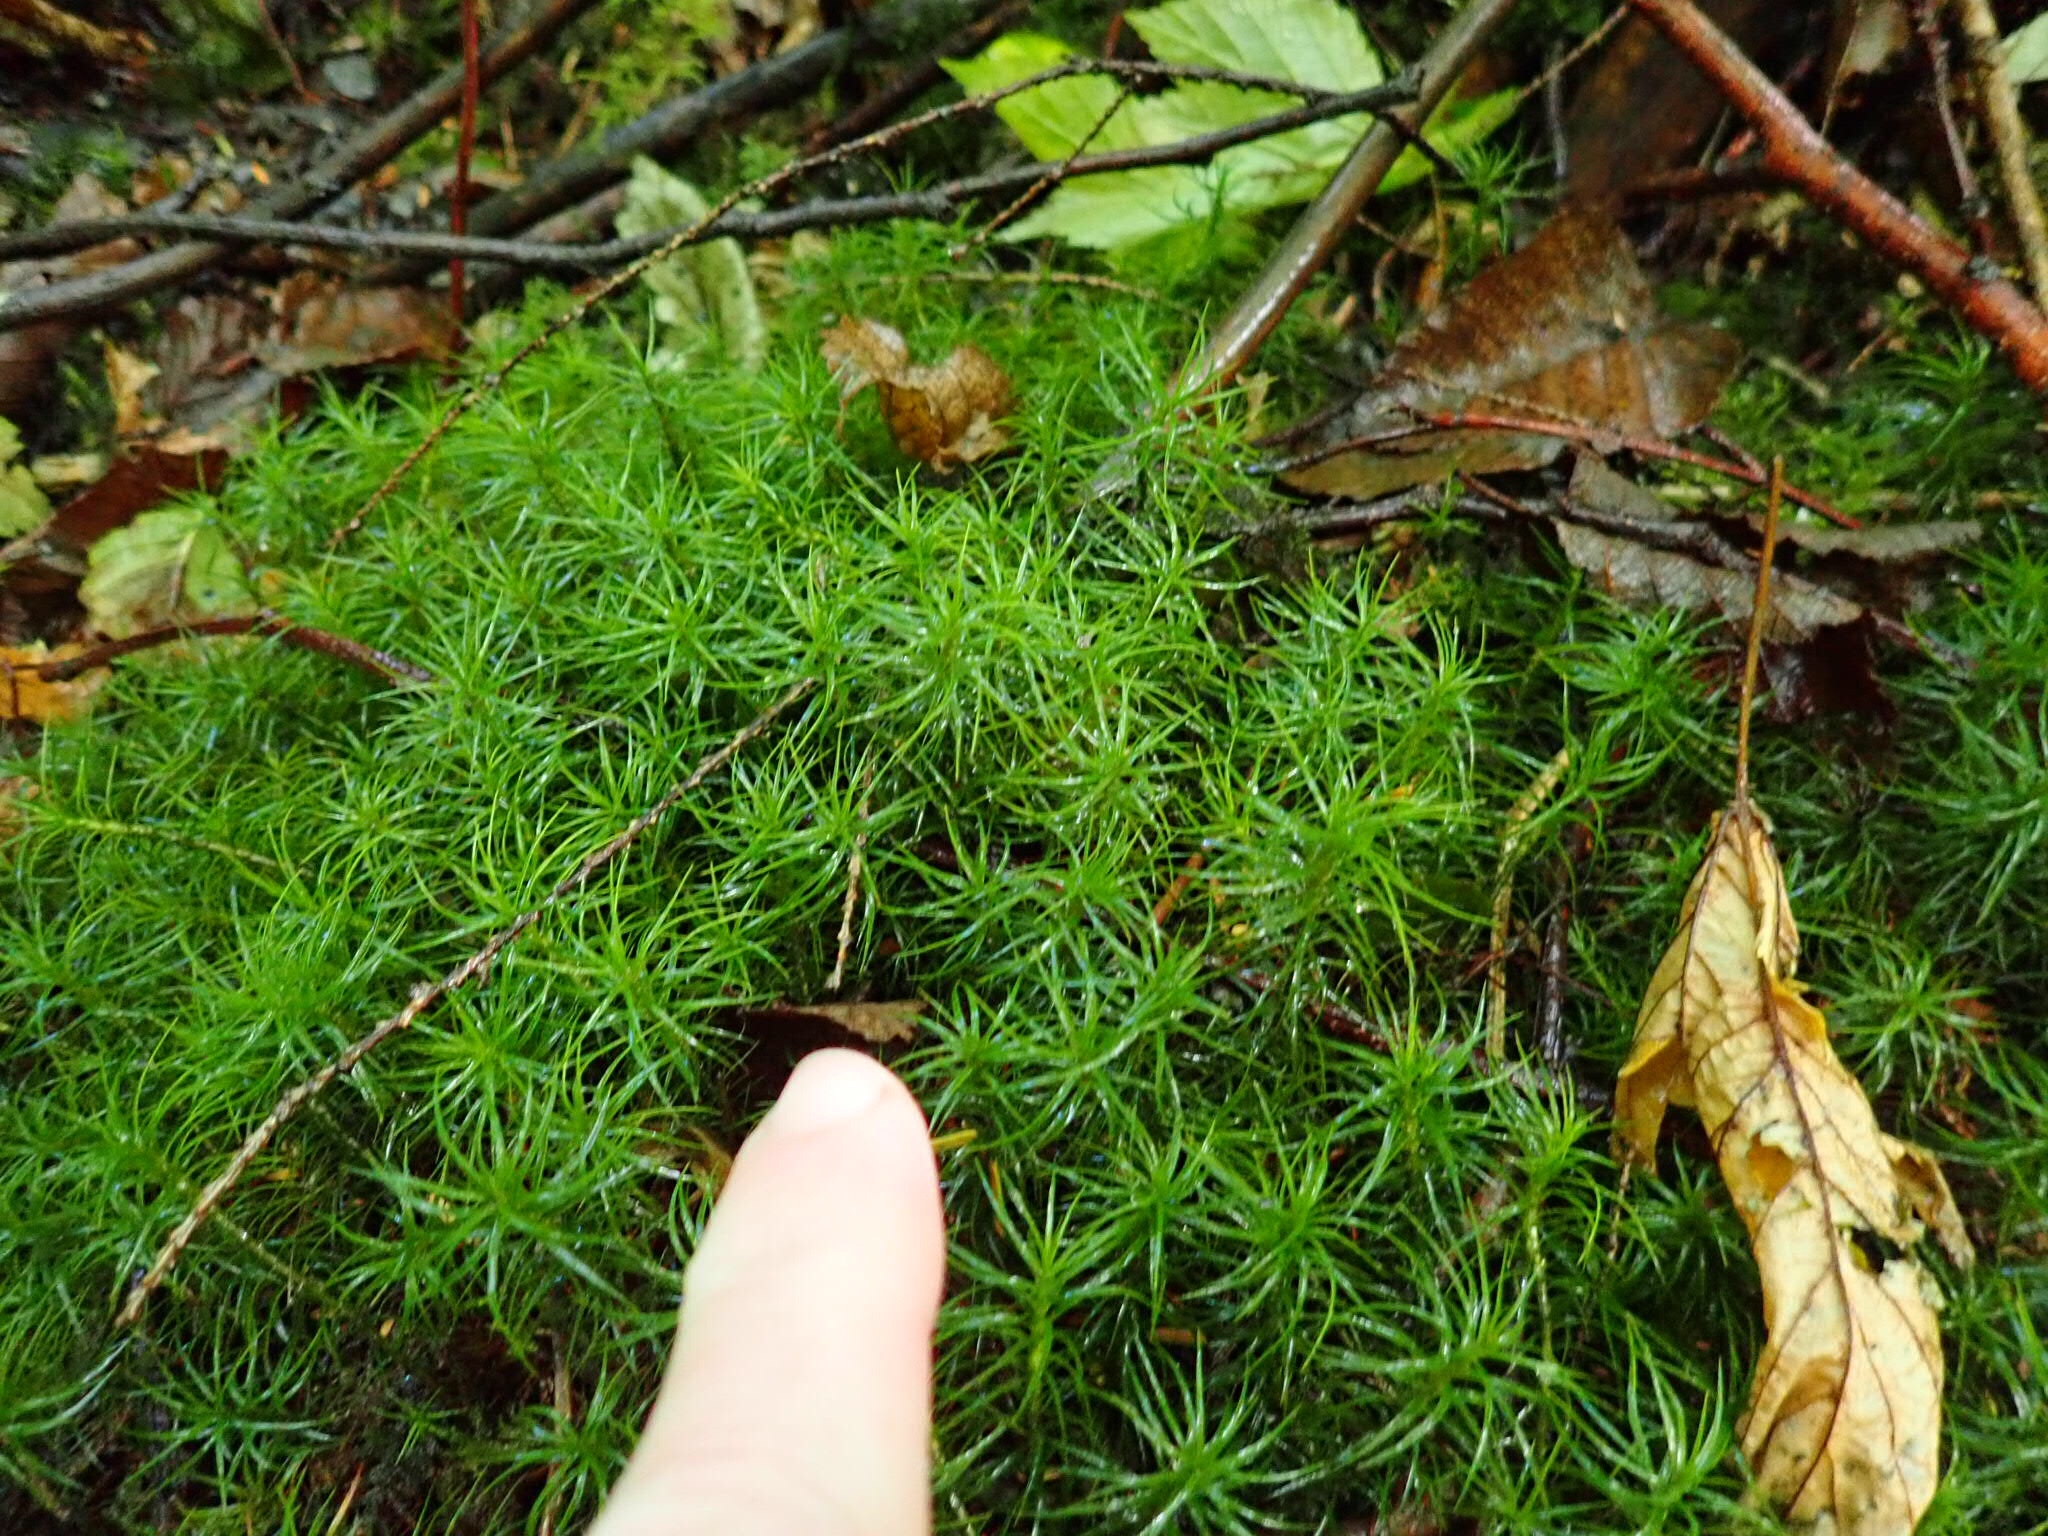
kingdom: Plantae
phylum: Bryophyta
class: Polytrichopsida
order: Polytrichales
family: Polytrichaceae
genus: Polytrichastrum
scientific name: Polytrichastrum alpinum
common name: Alpine haircap
